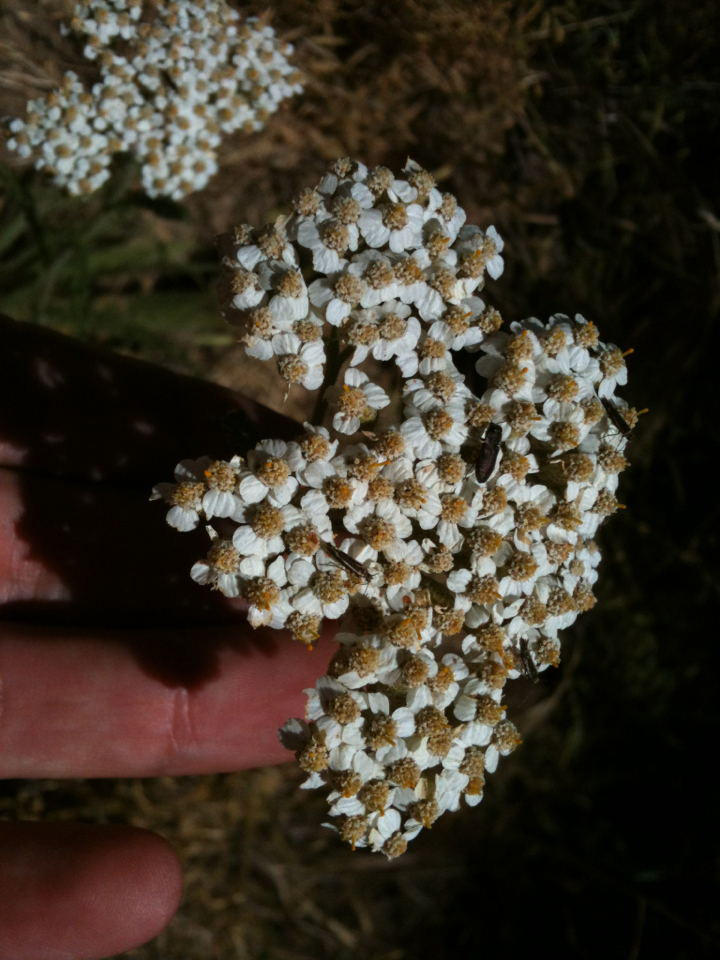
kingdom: Plantae
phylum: Tracheophyta
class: Magnoliopsida
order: Asterales
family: Asteraceae
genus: Achillea
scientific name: Achillea millefolium
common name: Yarrow
